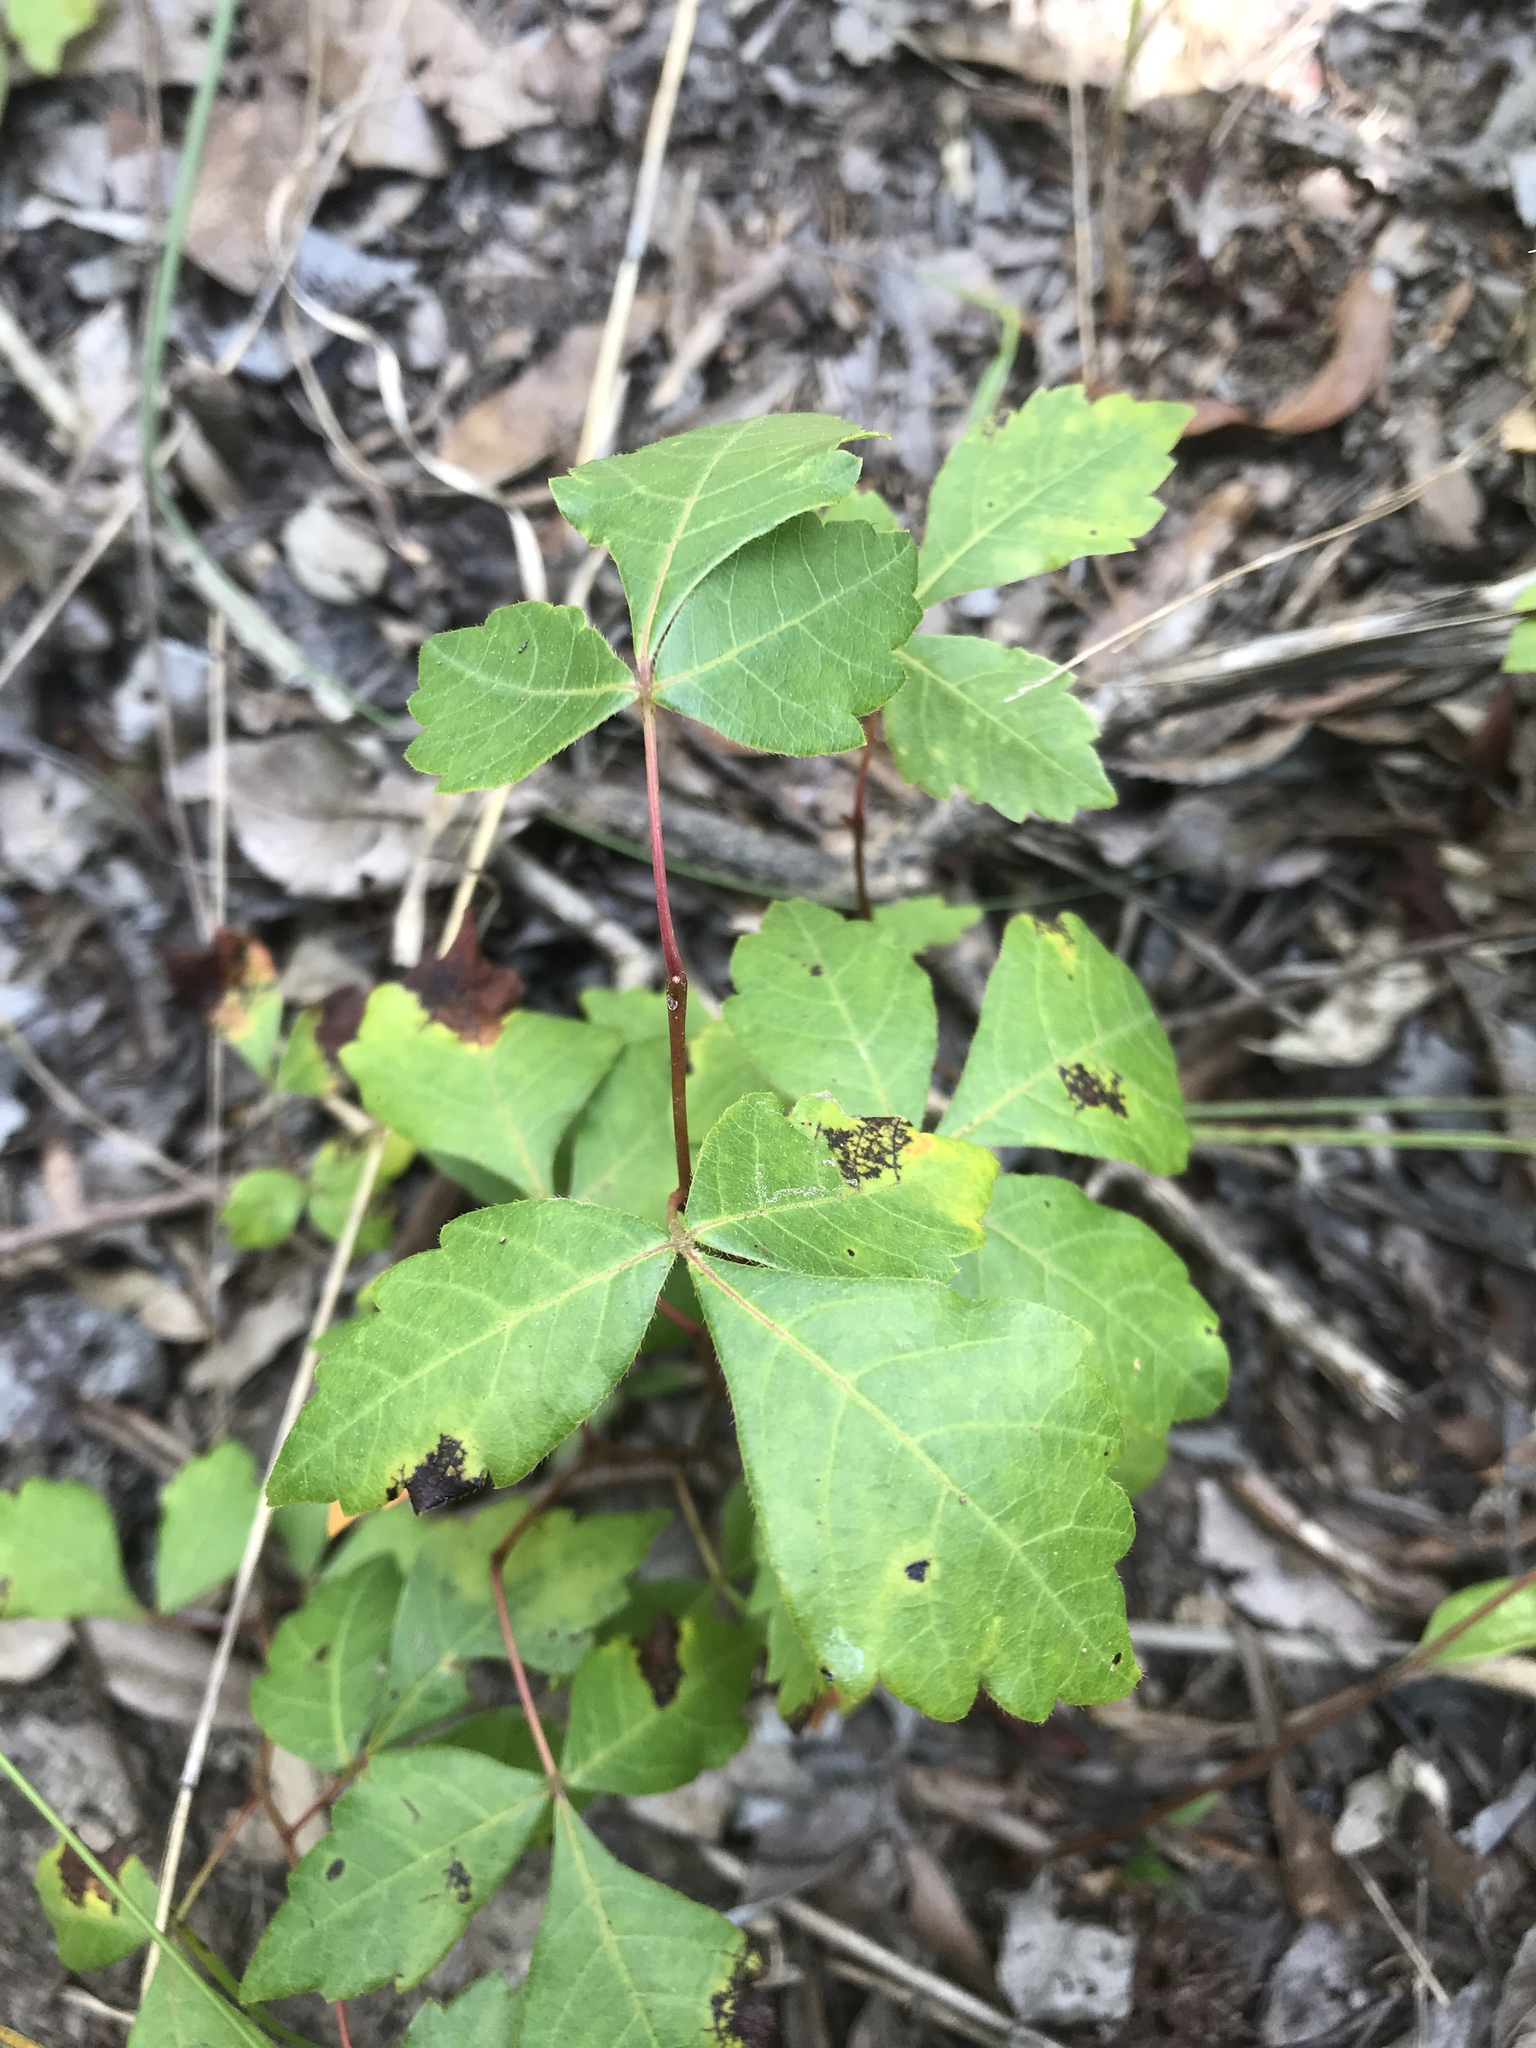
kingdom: Plantae
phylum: Tracheophyta
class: Magnoliopsida
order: Sapindales
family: Anacardiaceae
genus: Rhus
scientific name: Rhus aromatica
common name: Aromatic sumac
